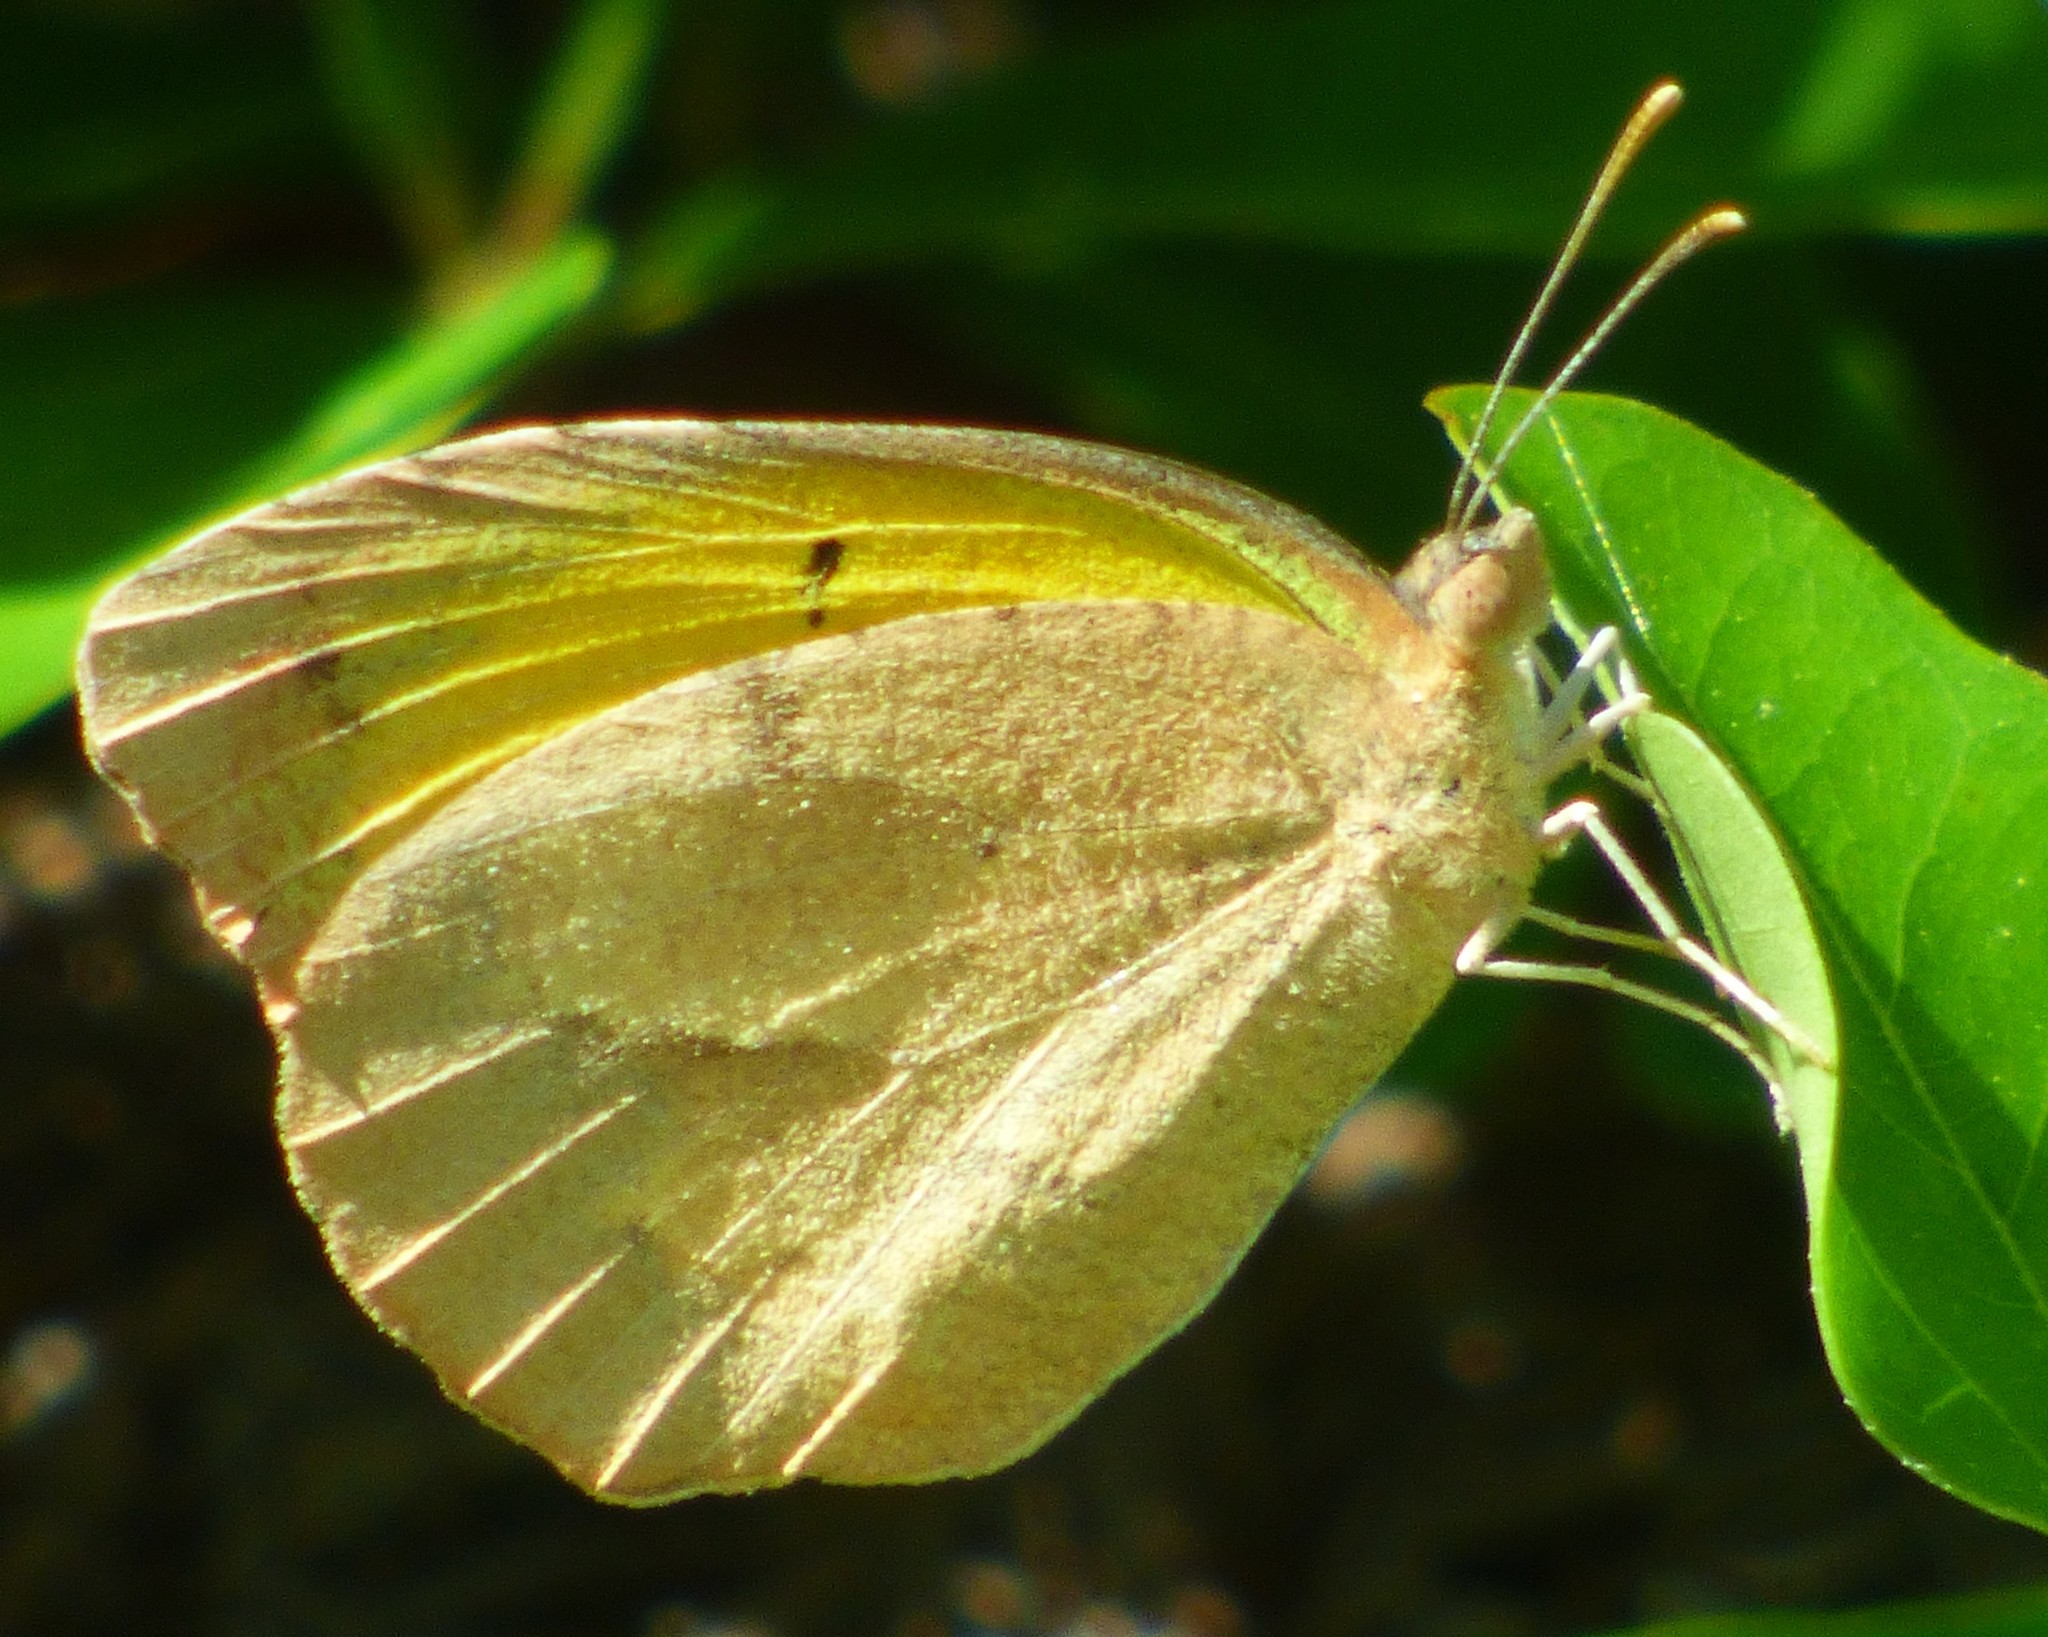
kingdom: Animalia
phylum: Arthropoda
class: Insecta
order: Lepidoptera
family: Pieridae
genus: Abaeis
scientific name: Abaeis nicippe
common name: Sleepy orange
